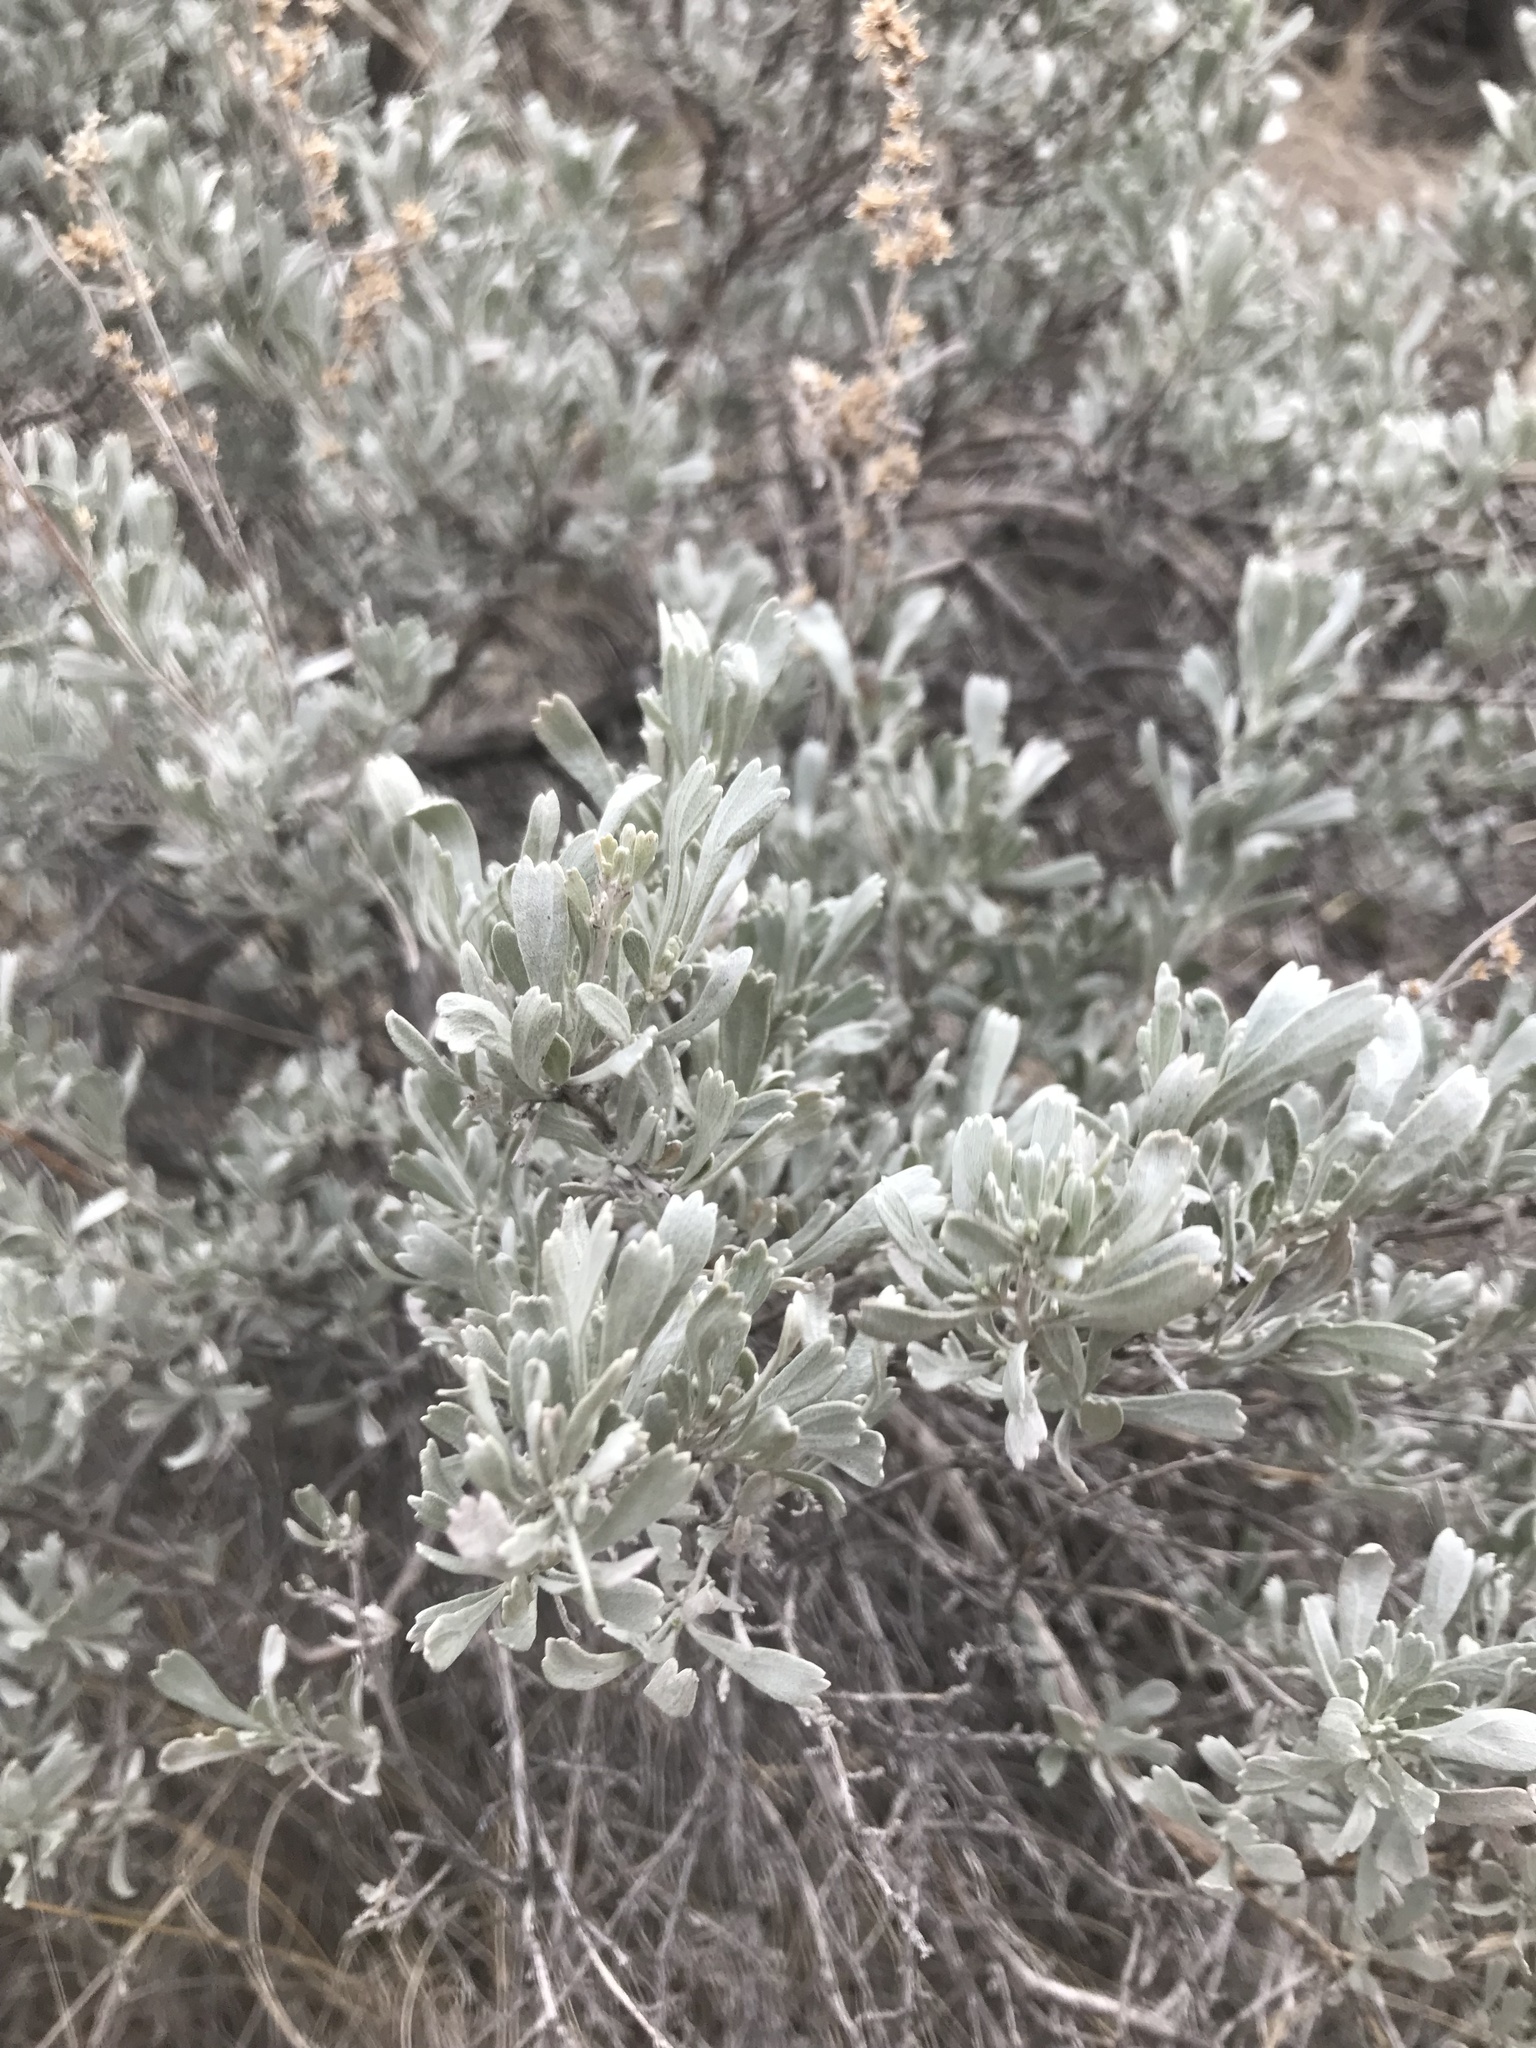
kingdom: Plantae
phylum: Tracheophyta
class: Magnoliopsida
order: Asterales
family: Asteraceae
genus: Artemisia
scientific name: Artemisia tridentata
